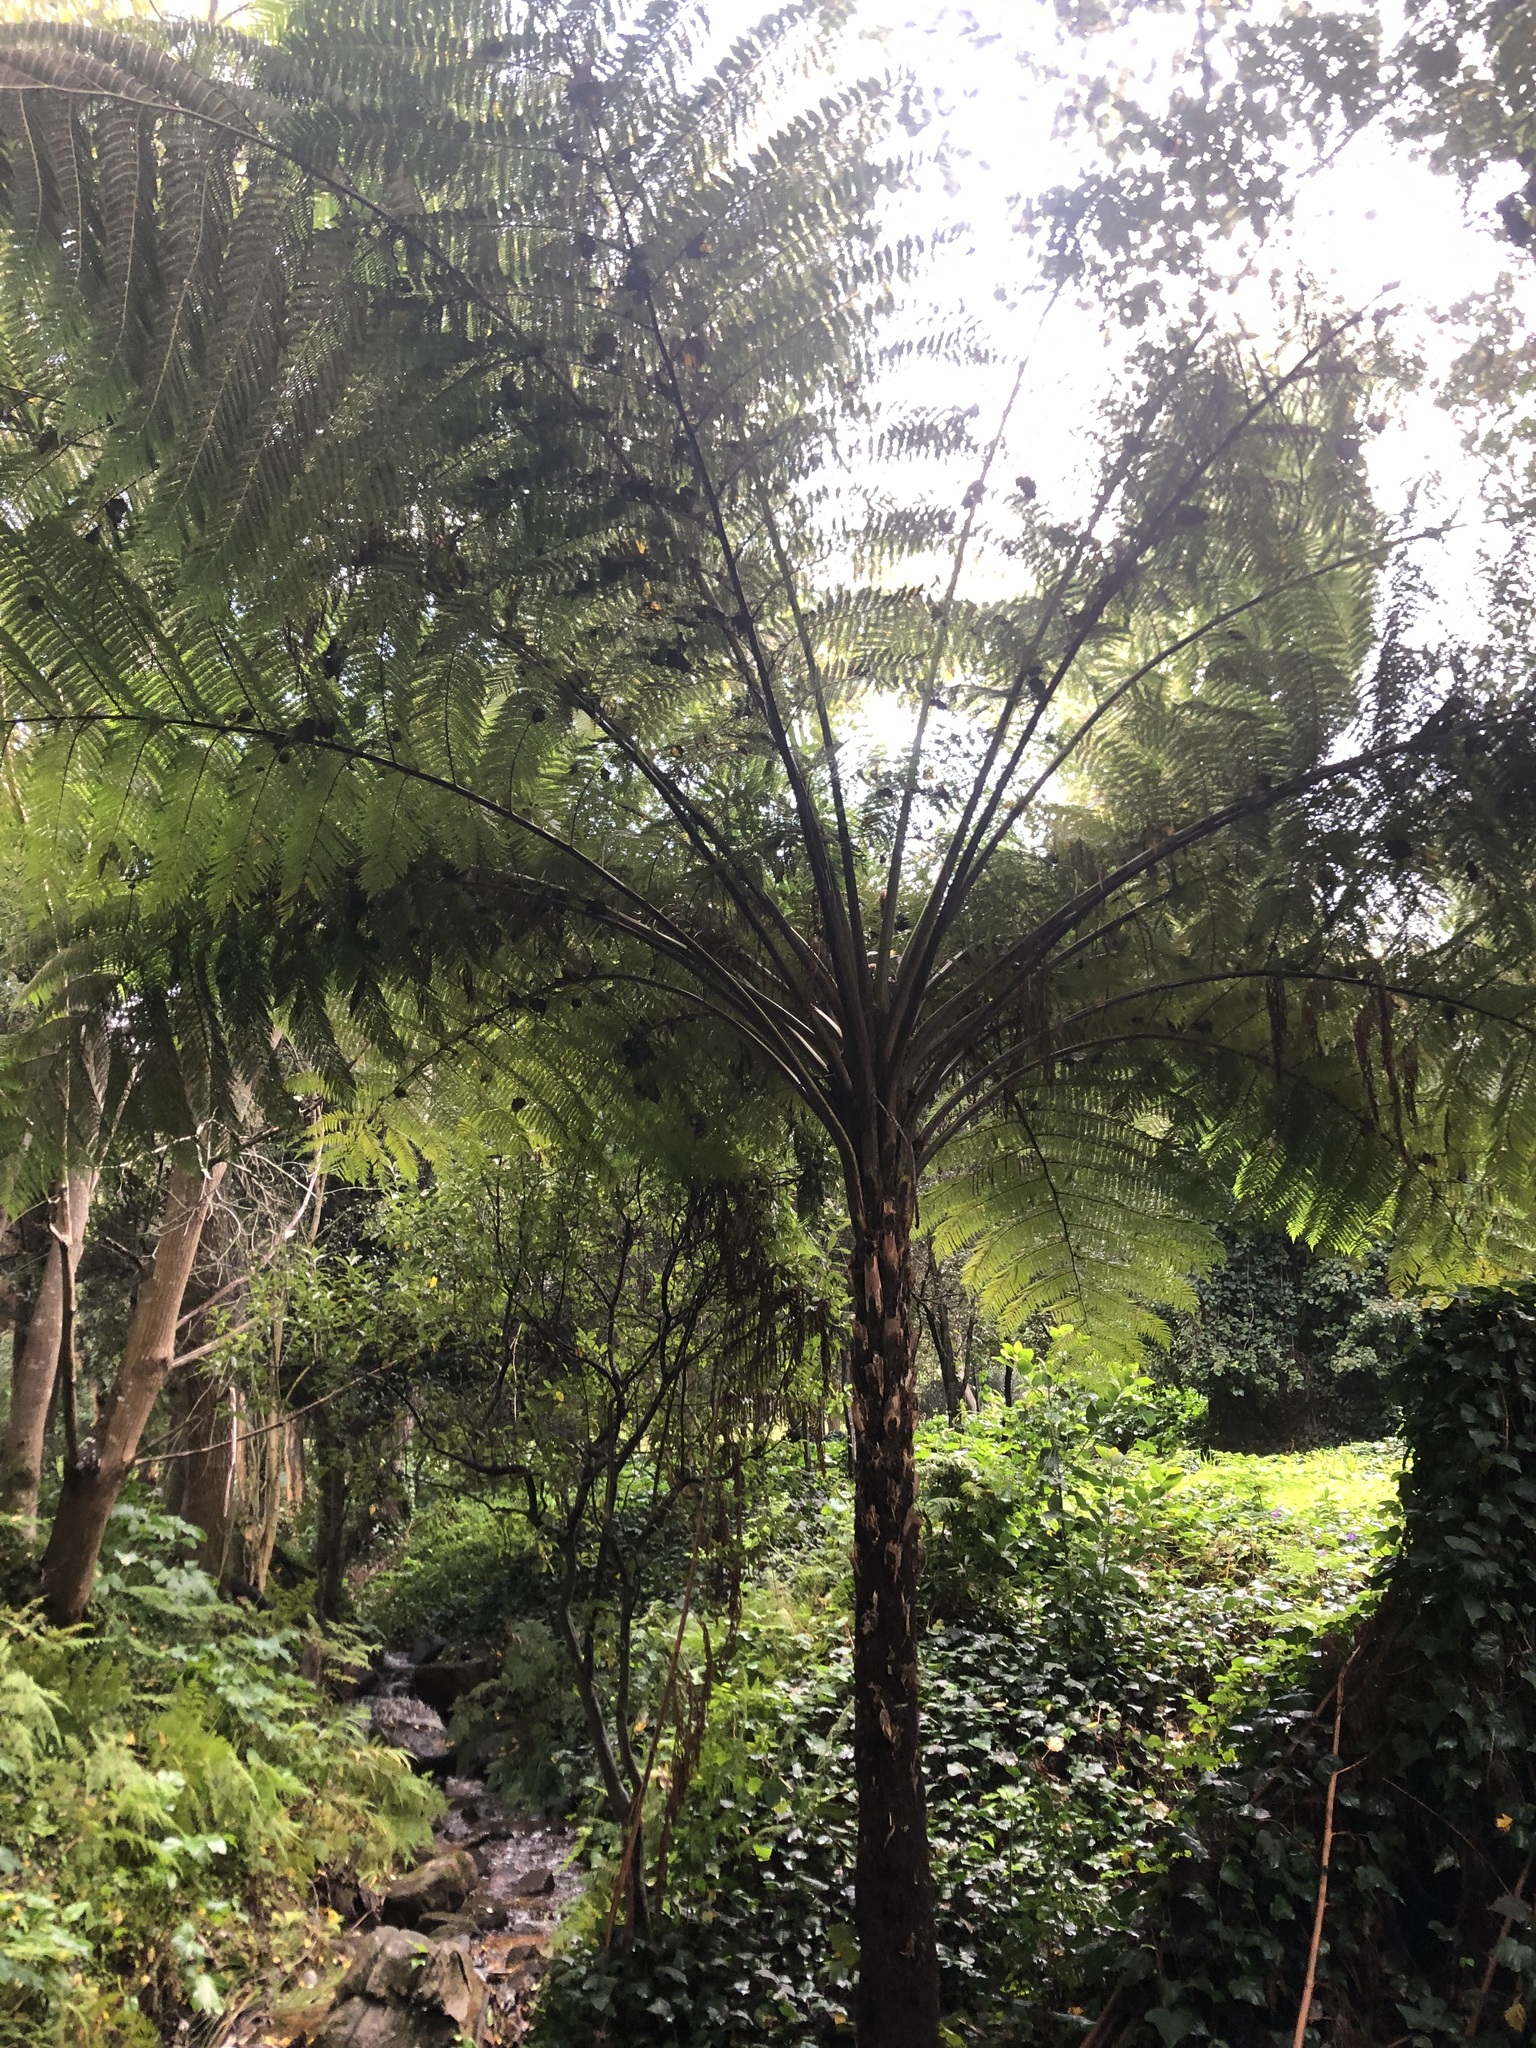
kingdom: Plantae
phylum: Tracheophyta
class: Polypodiopsida
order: Cyatheales
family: Cyatheaceae
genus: Sphaeropteris
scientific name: Sphaeropteris cooperi
